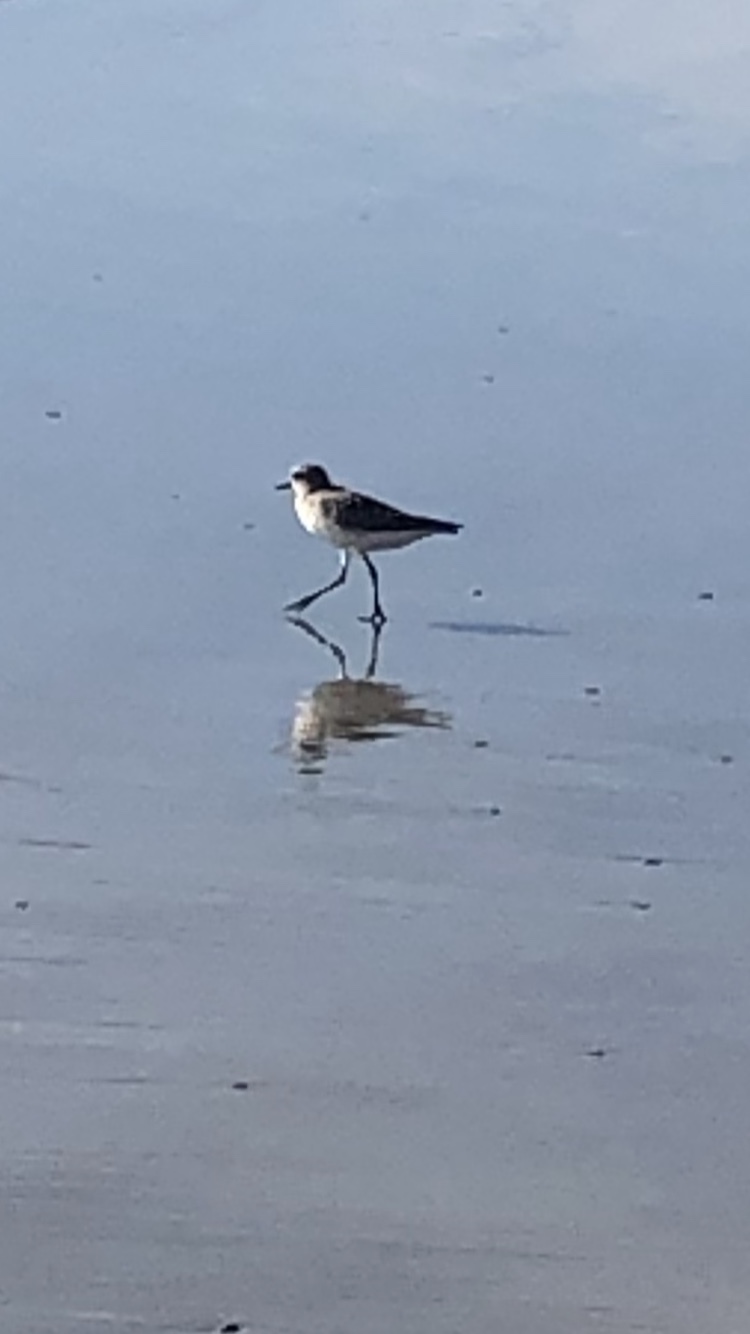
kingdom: Animalia
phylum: Chordata
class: Aves
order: Charadriiformes
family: Charadriidae
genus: Pluvialis
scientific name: Pluvialis squatarola
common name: Grey plover
